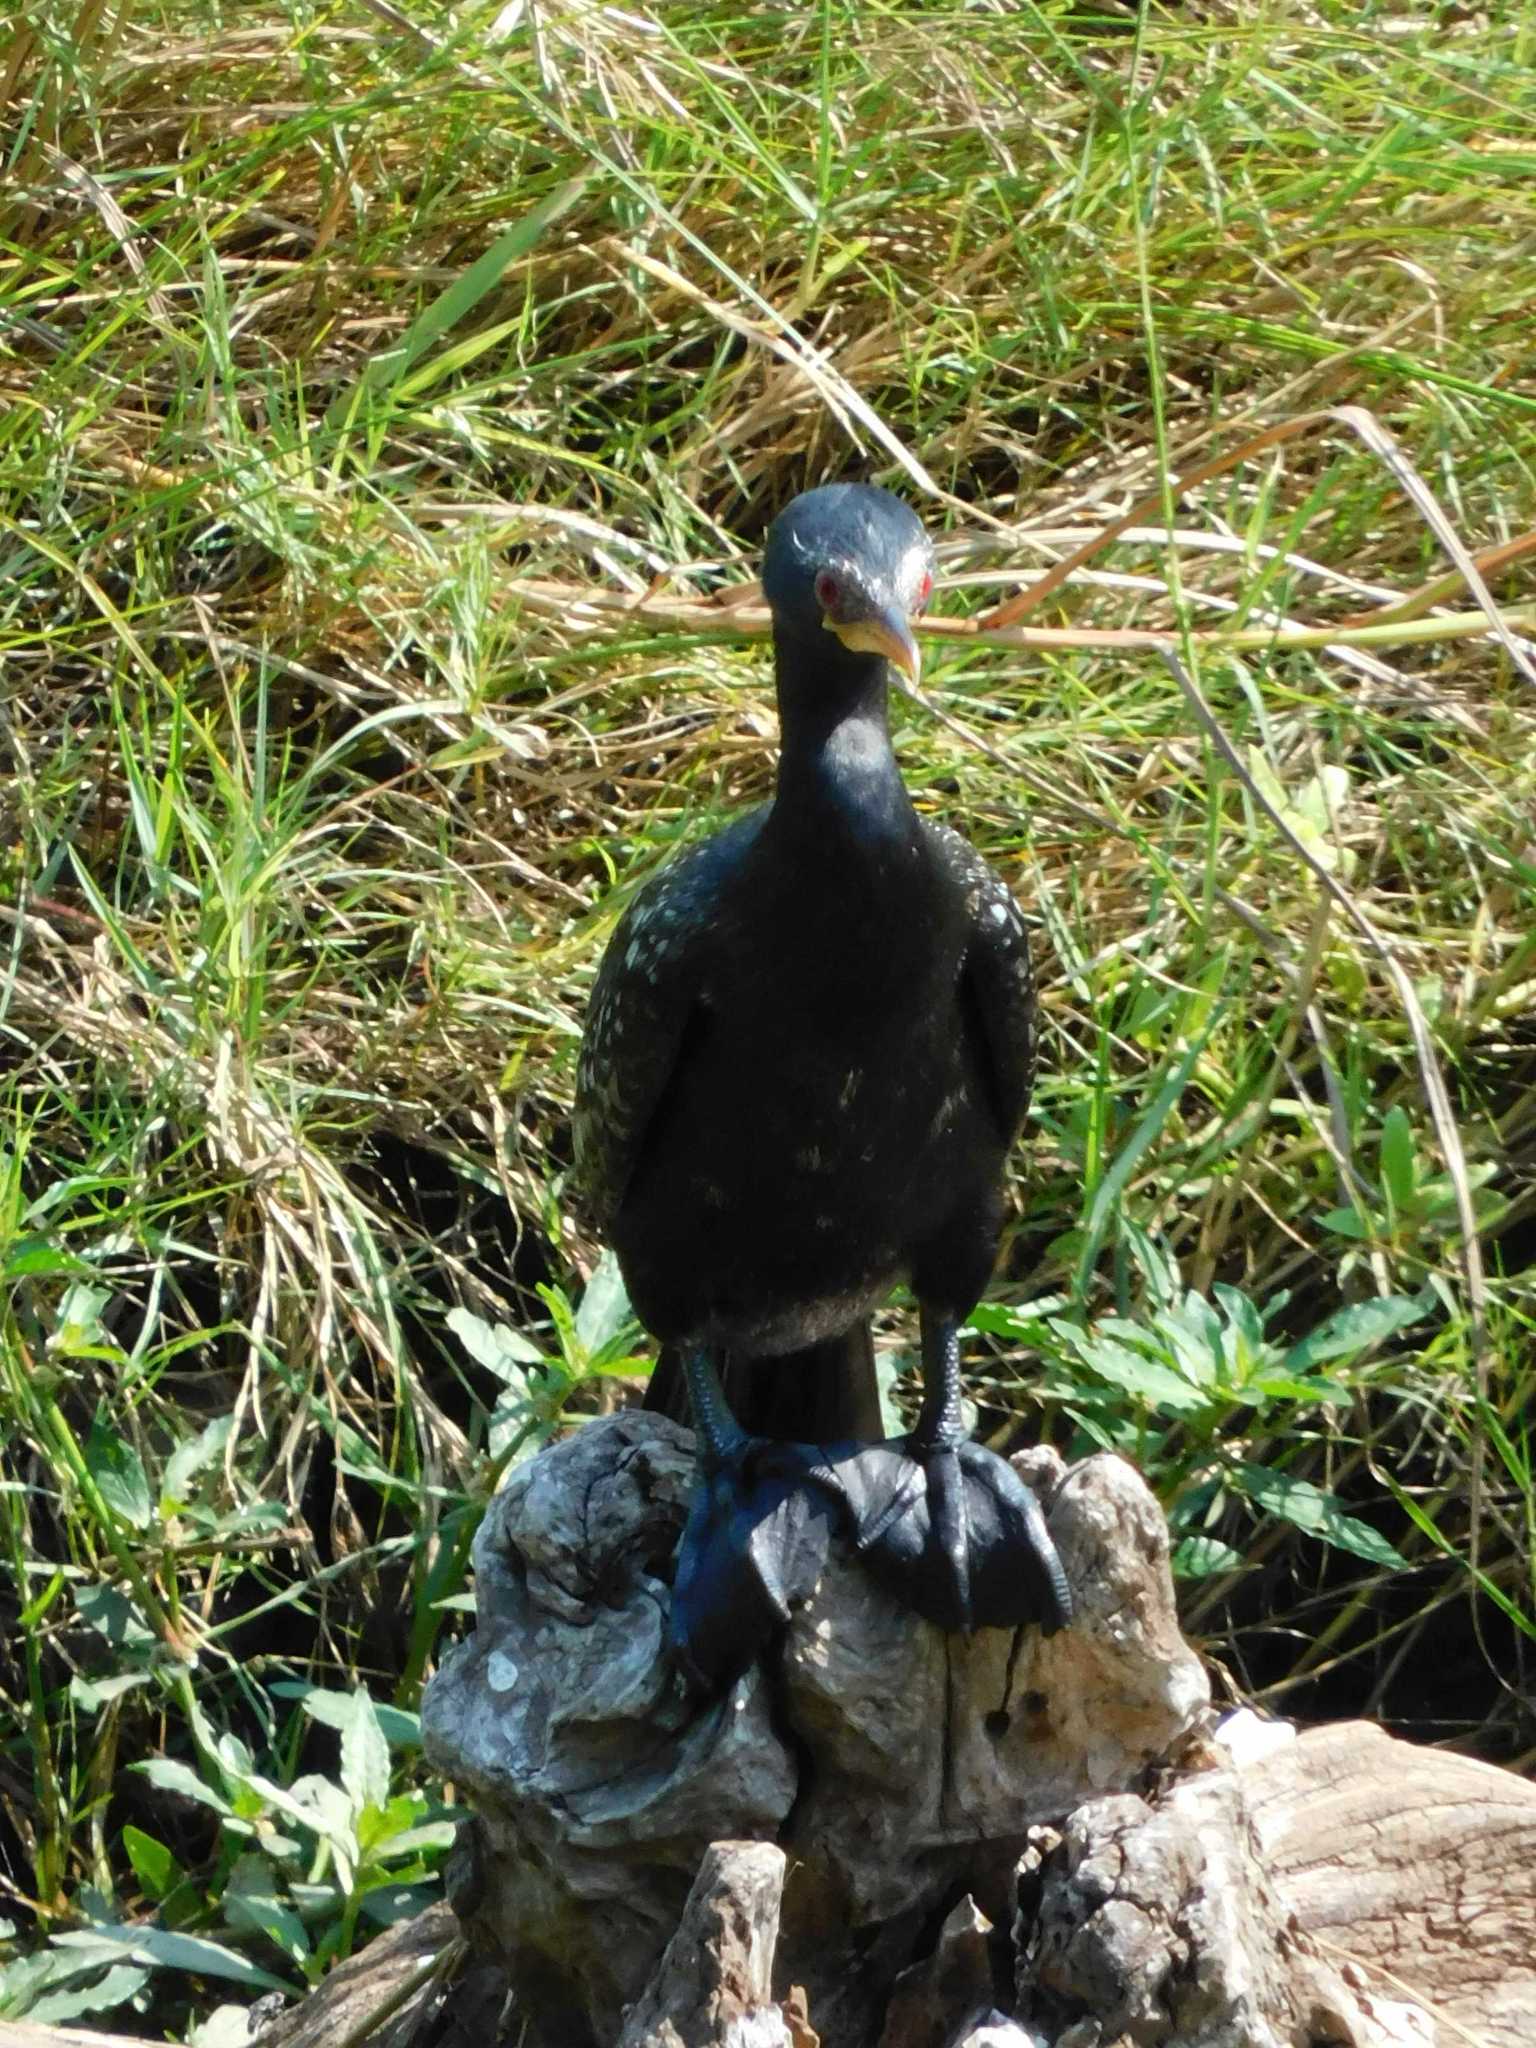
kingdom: Animalia
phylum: Chordata
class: Aves
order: Suliformes
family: Phalacrocoracidae
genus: Microcarbo
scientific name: Microcarbo africanus
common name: Long-tailed cormorant
